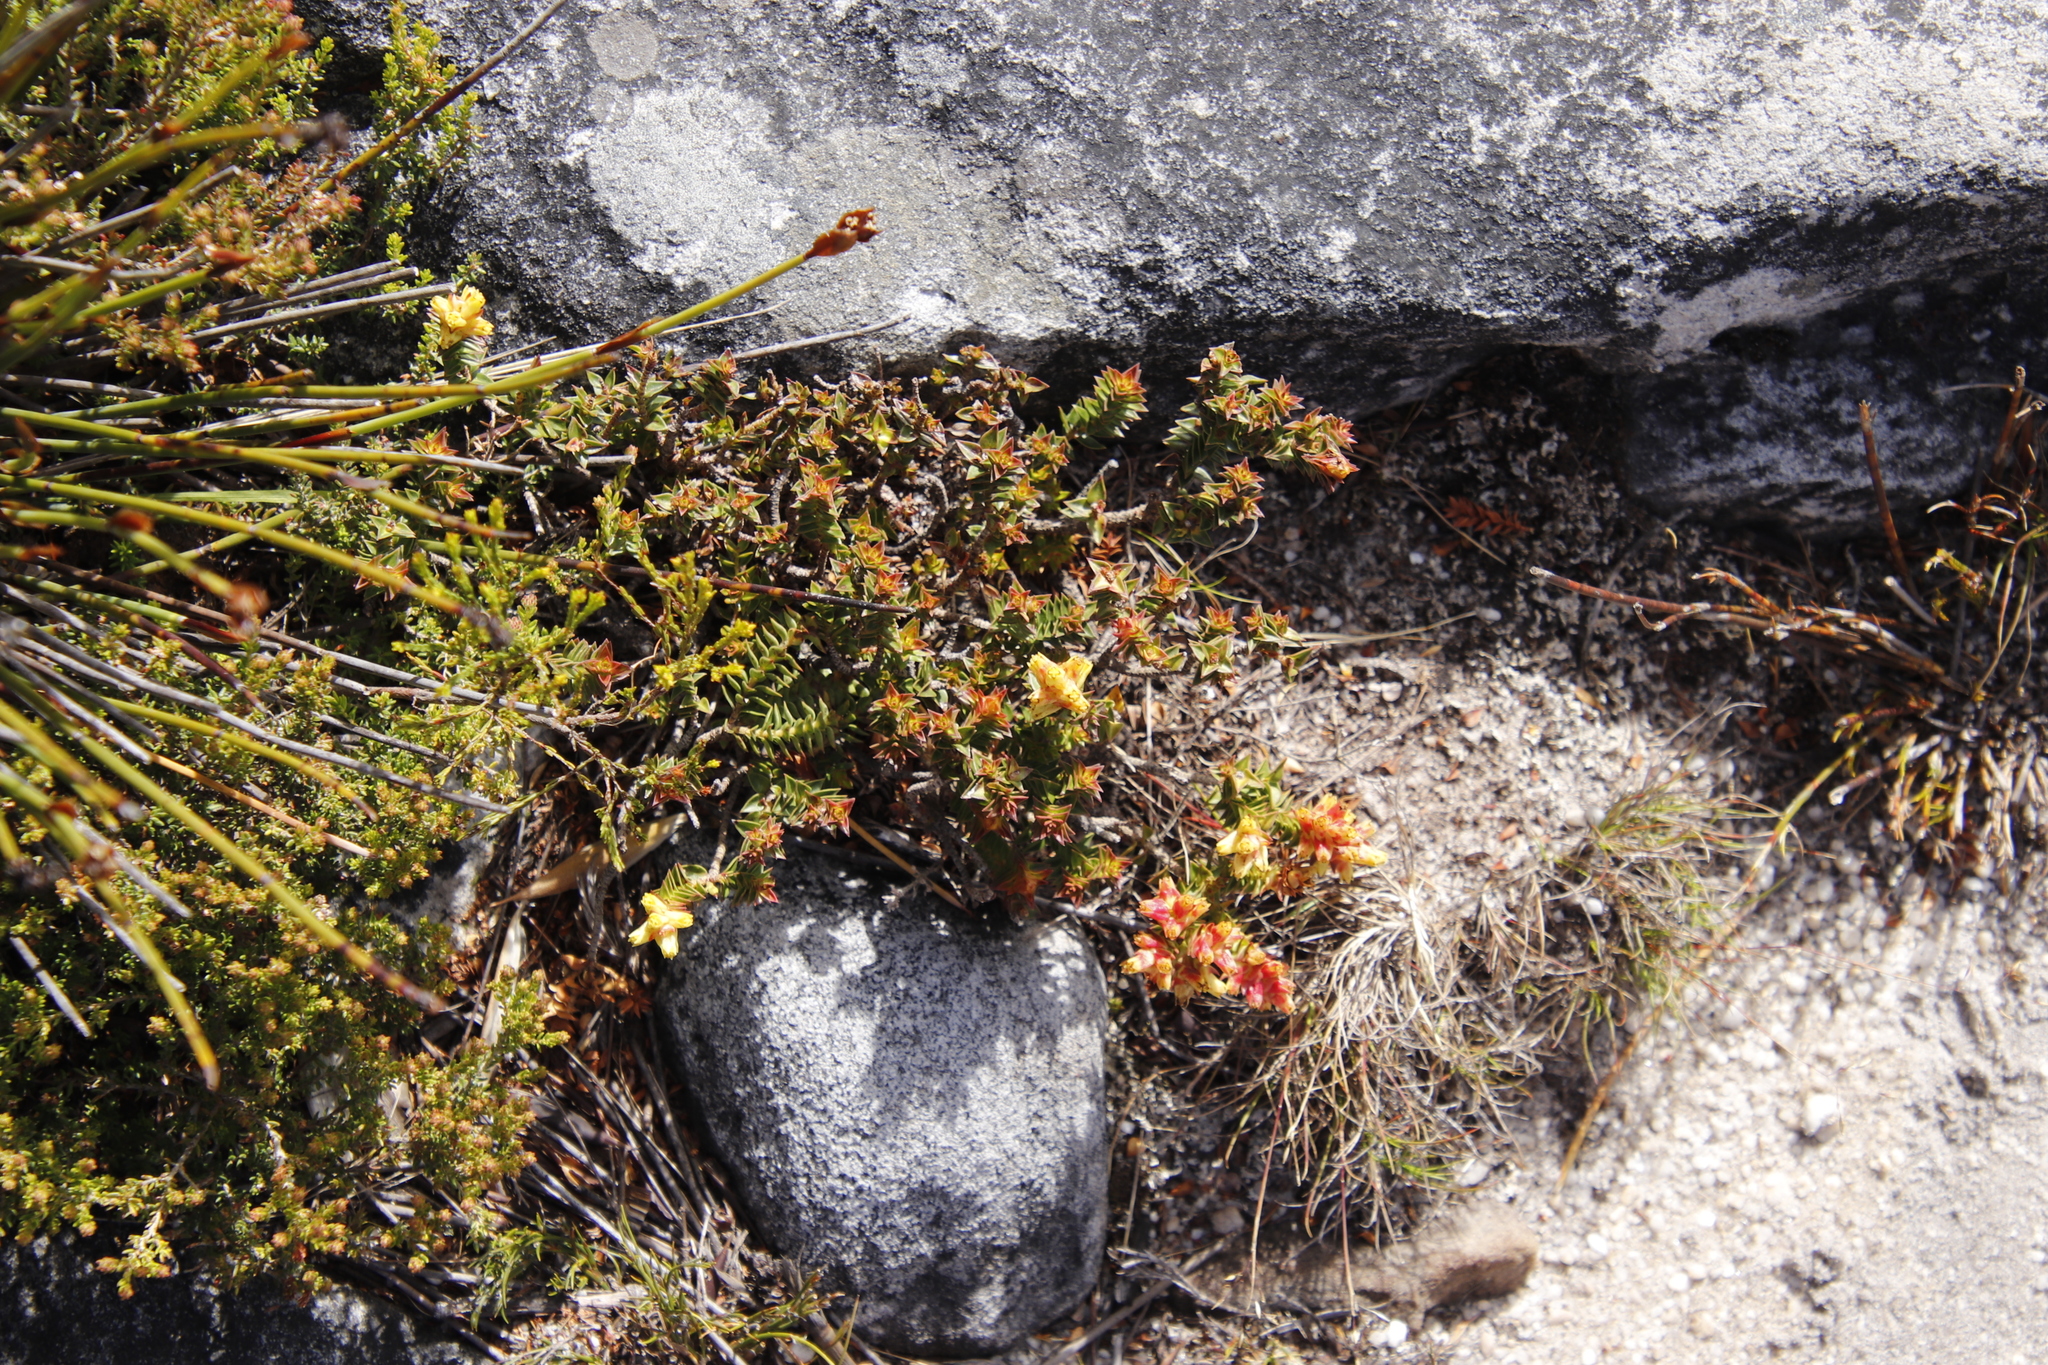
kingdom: Plantae
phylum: Tracheophyta
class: Magnoliopsida
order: Myrtales
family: Penaeaceae
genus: Penaea
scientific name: Penaea mucronata
